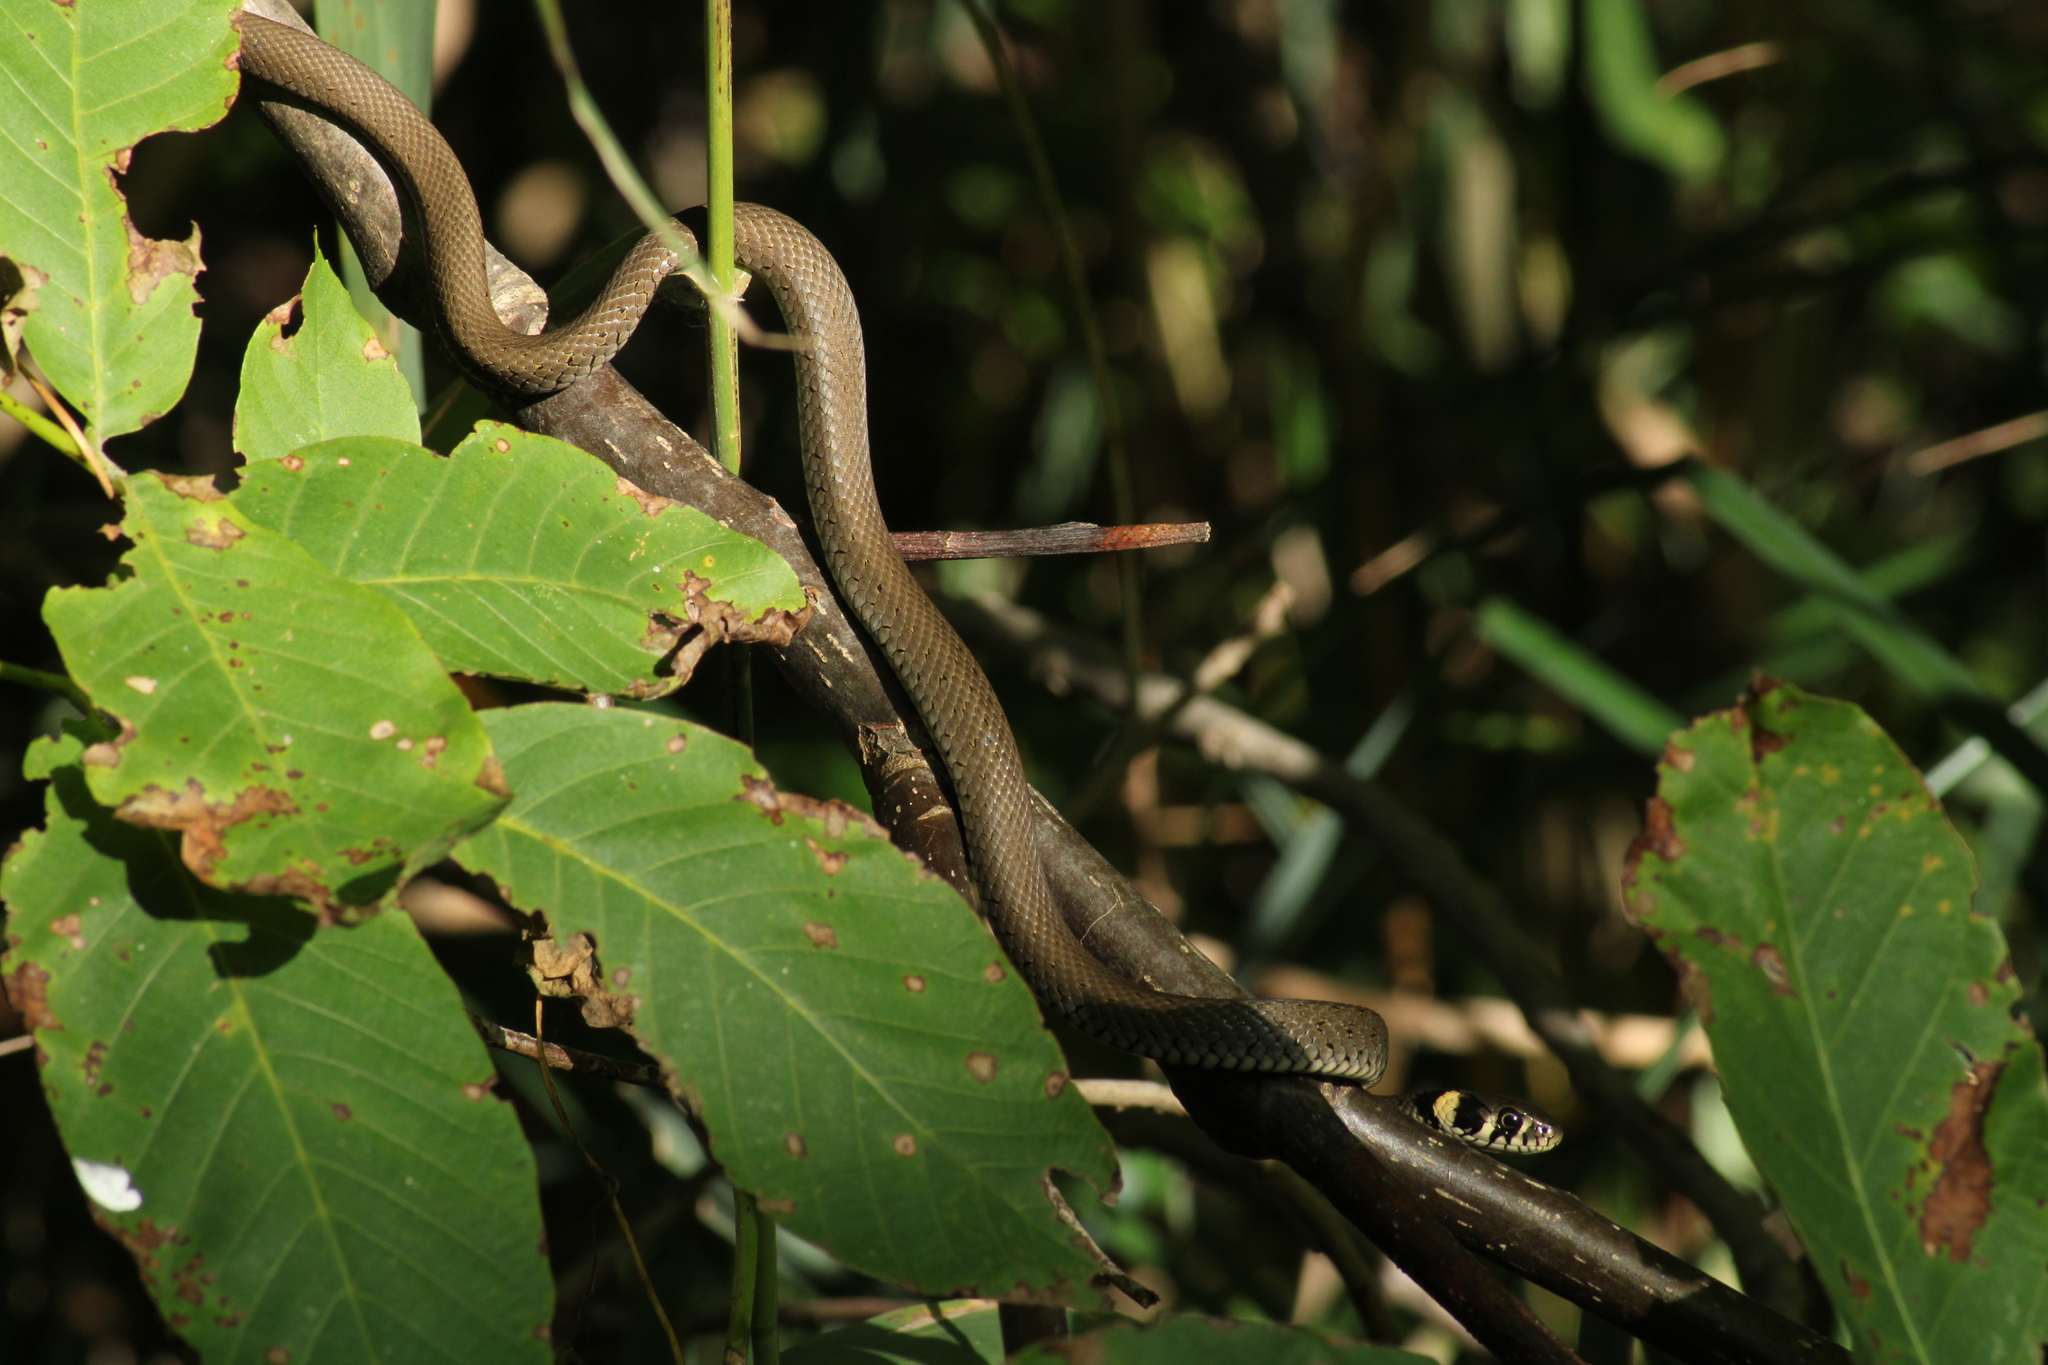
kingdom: Animalia
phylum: Chordata
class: Squamata
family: Colubridae
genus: Natrix
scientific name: Natrix natrix
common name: Grass snake
